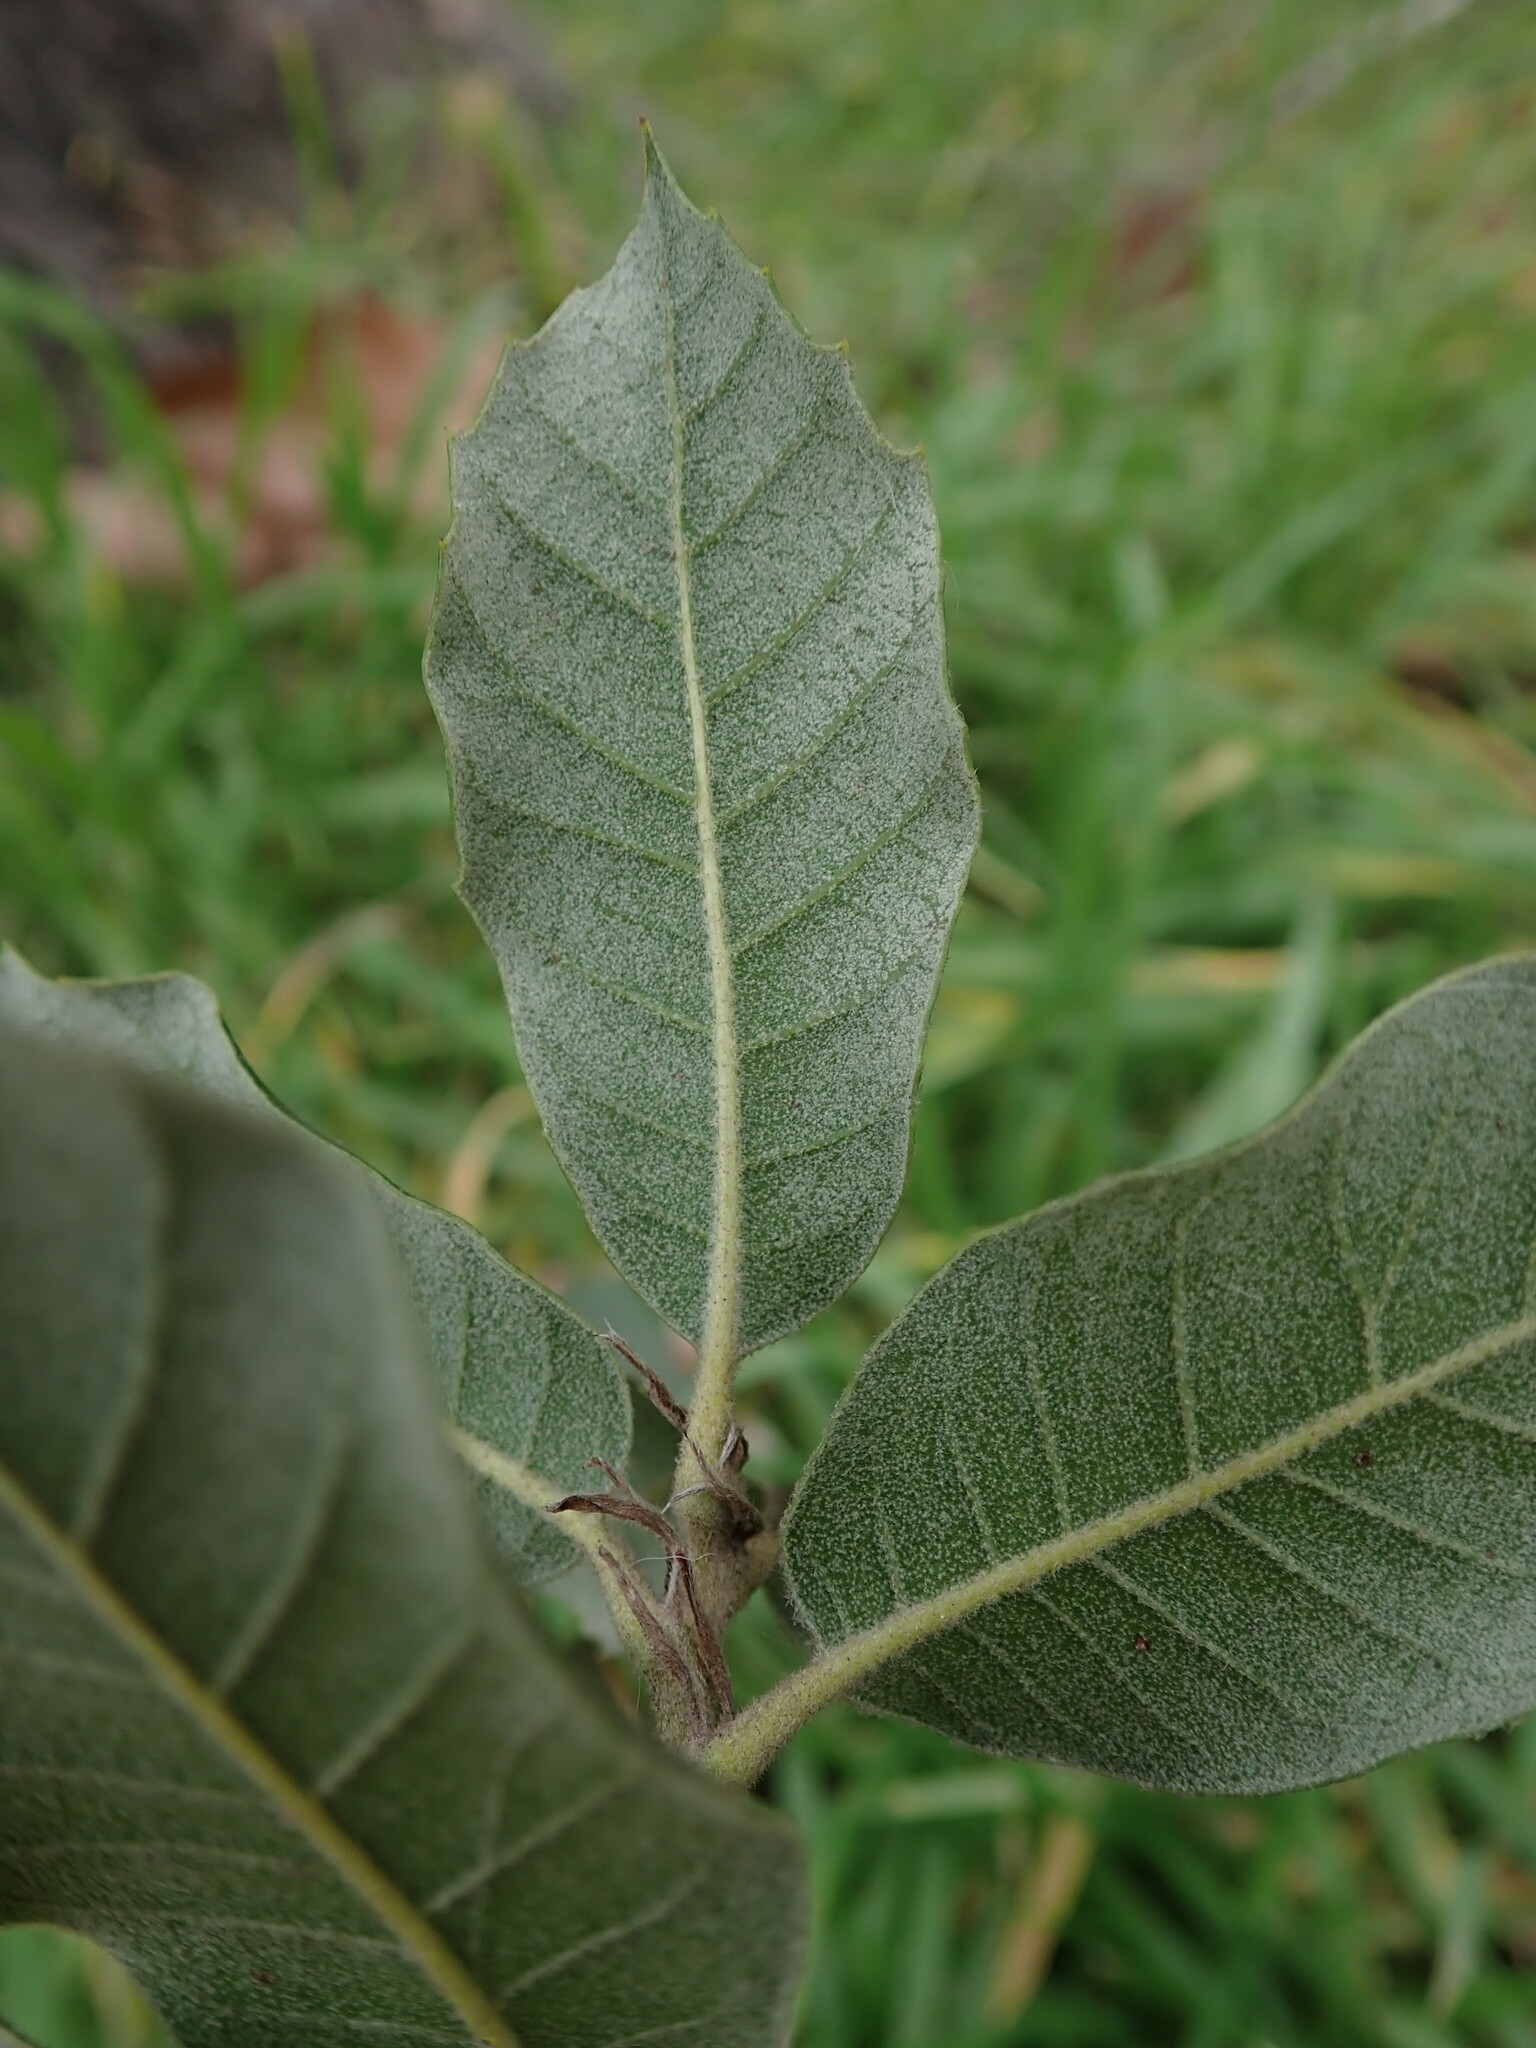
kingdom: Plantae
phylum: Tracheophyta
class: Magnoliopsida
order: Fagales
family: Fagaceae
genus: Quercus
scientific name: Quercus ilex
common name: Evergreen oak
